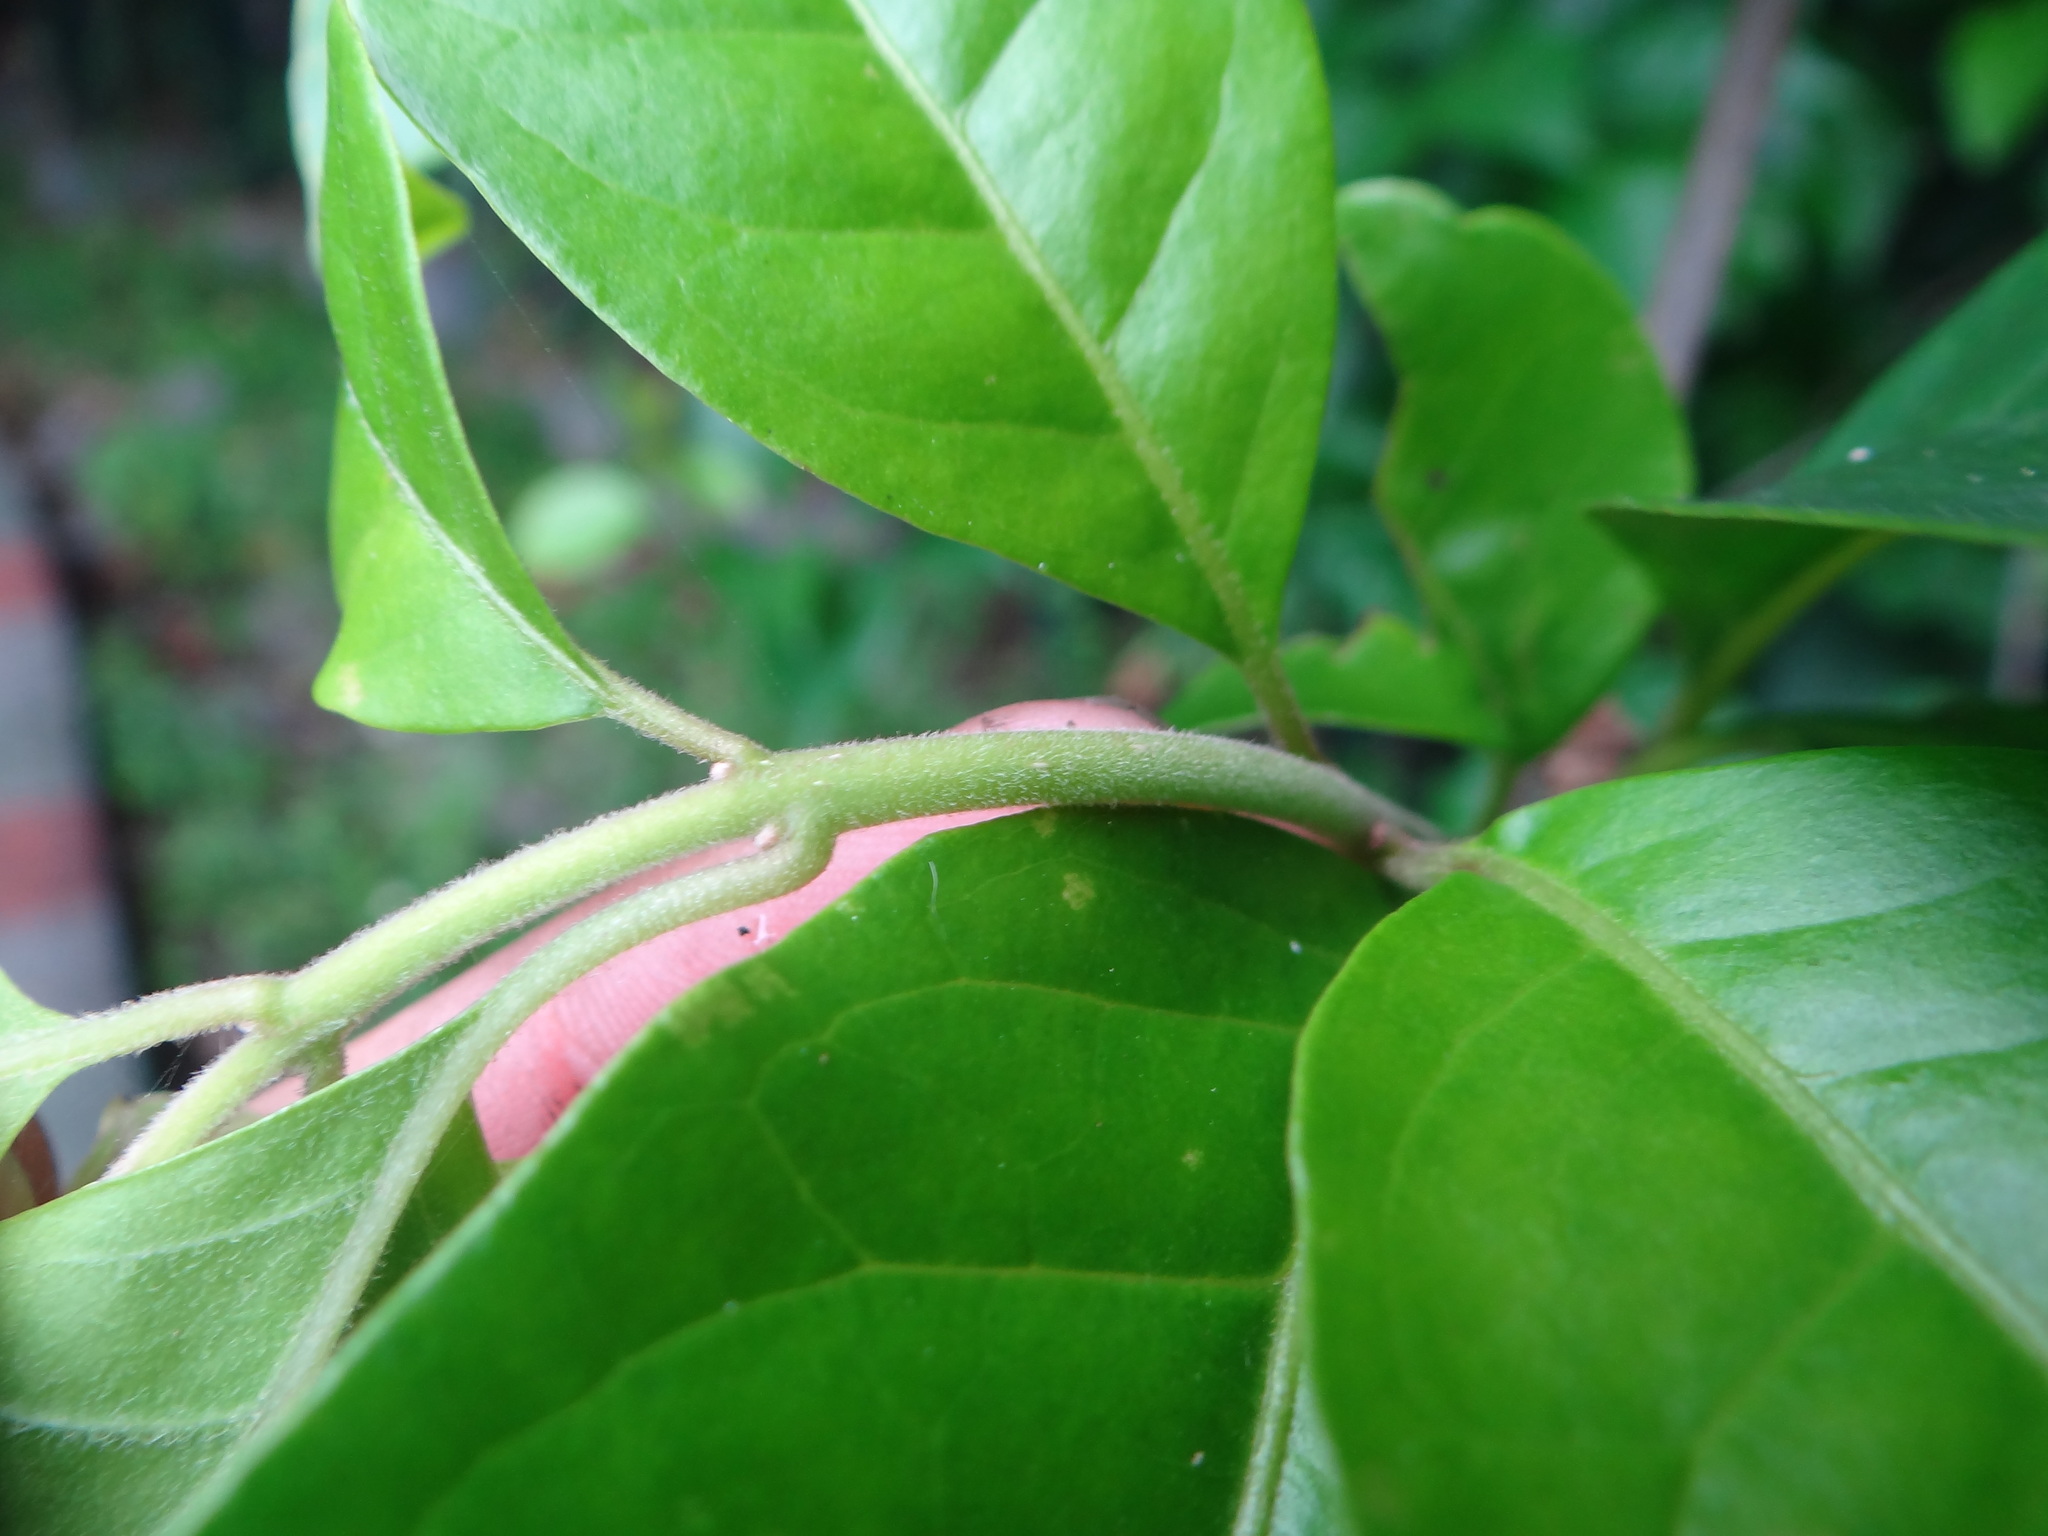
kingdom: Plantae
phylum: Tracheophyta
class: Magnoliopsida
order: Caryophyllales
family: Nyctaginaceae
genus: Ceodes
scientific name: Ceodes umbellifera
